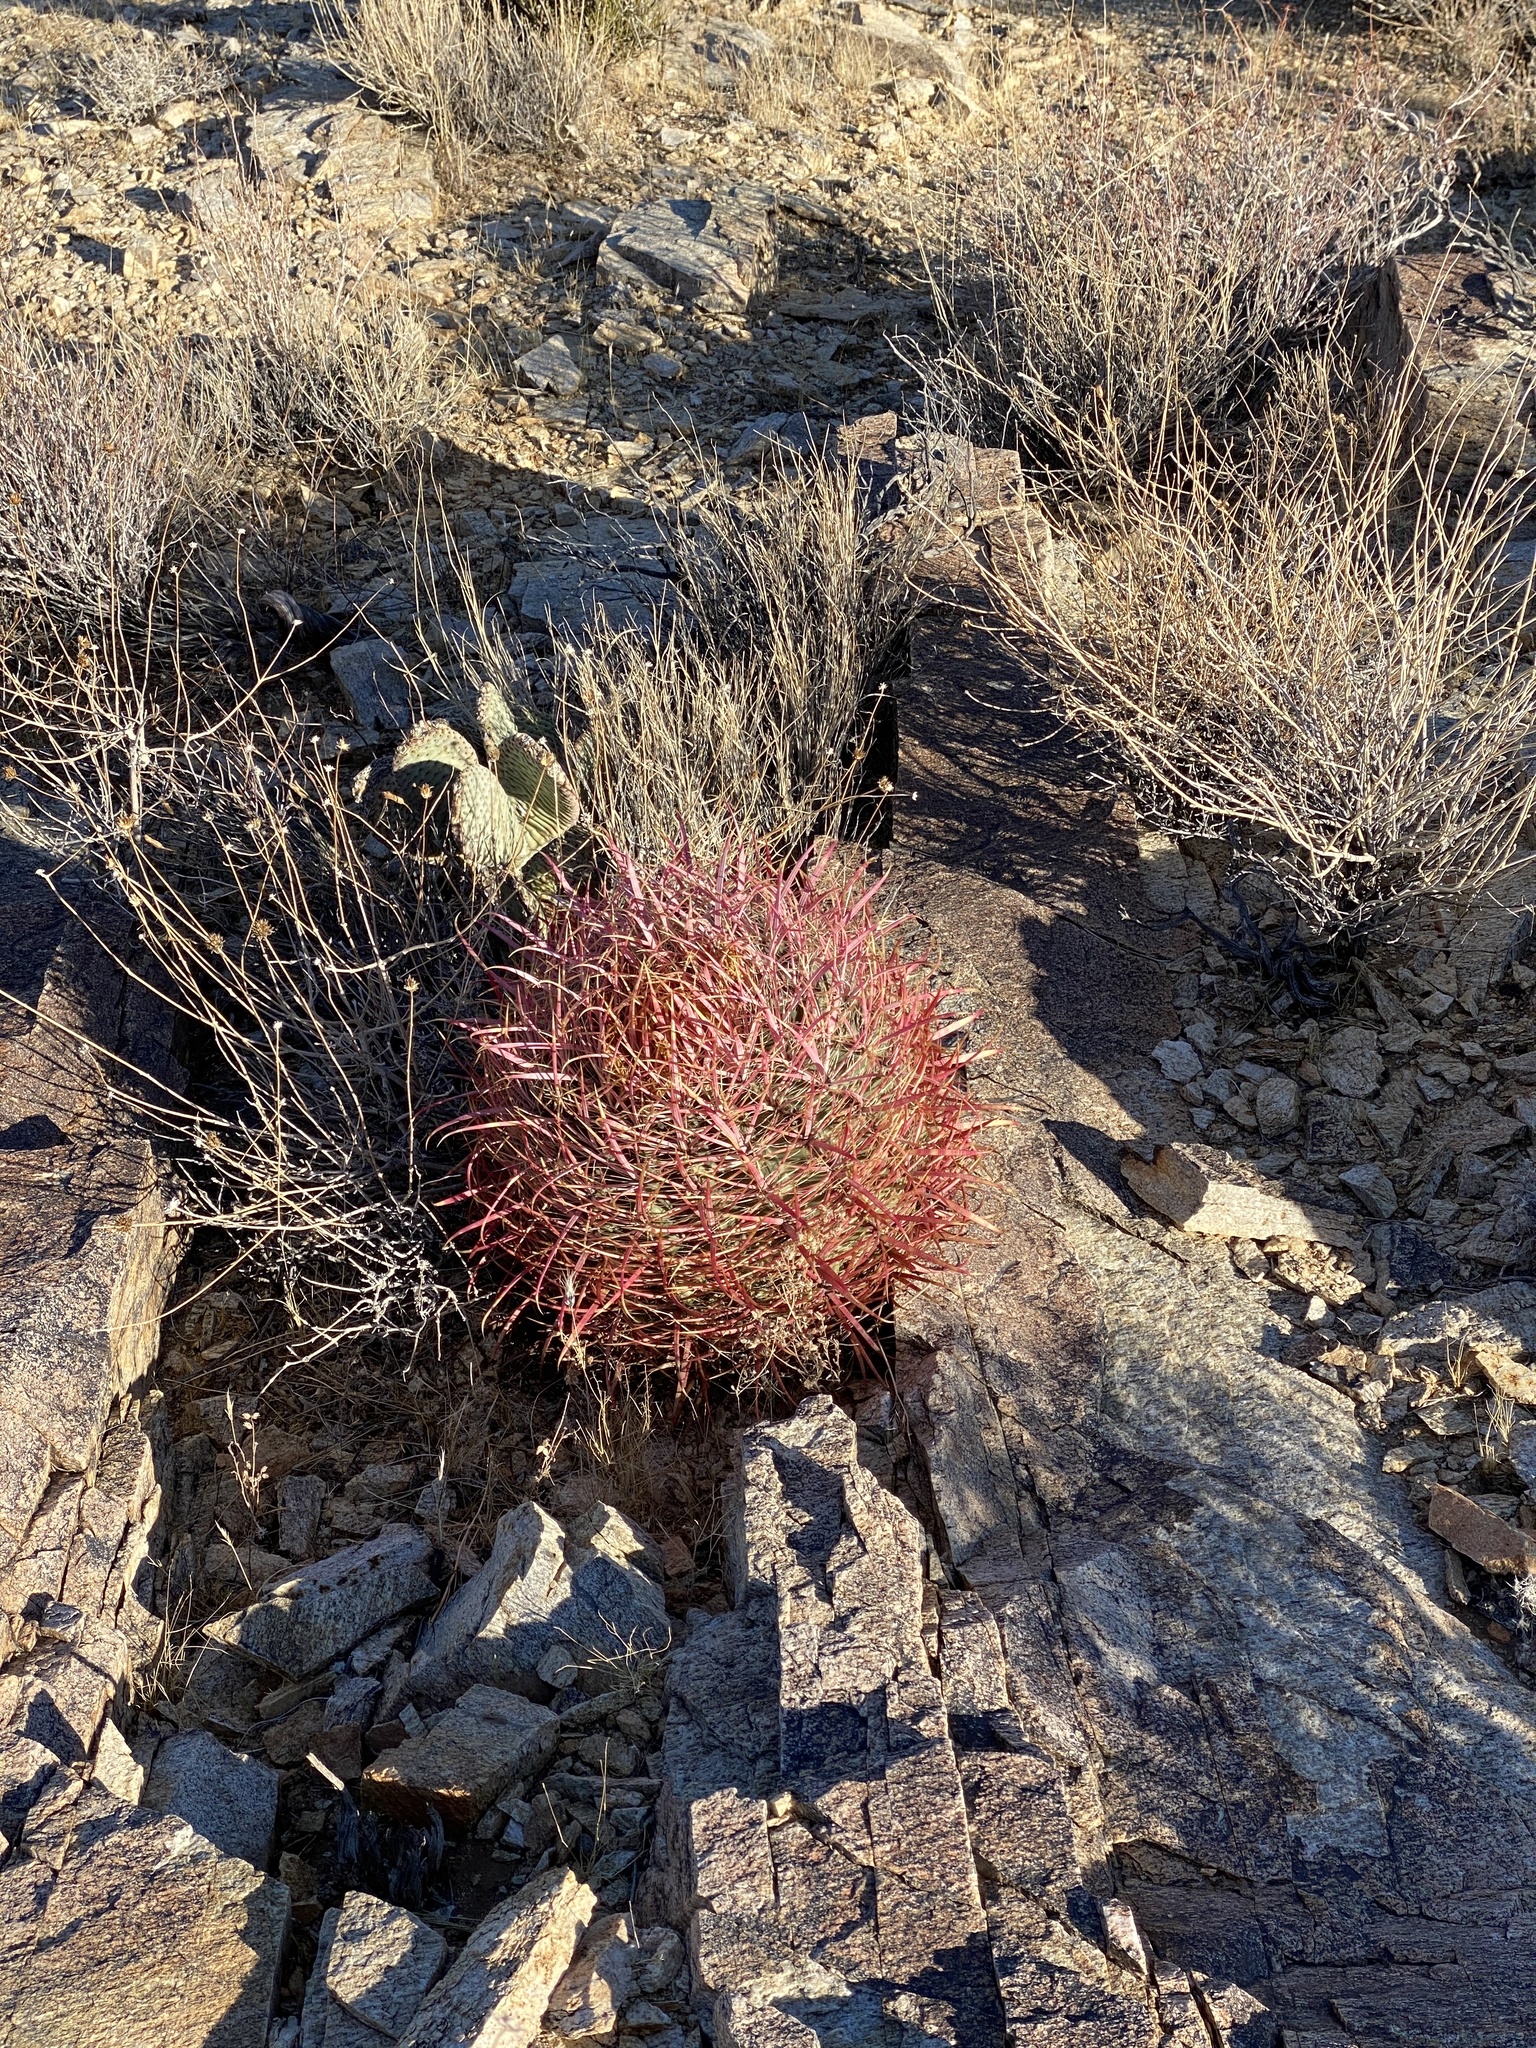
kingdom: Plantae
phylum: Tracheophyta
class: Magnoliopsida
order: Caryophyllales
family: Cactaceae
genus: Ferocactus
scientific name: Ferocactus cylindraceus
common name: California barrel cactus
